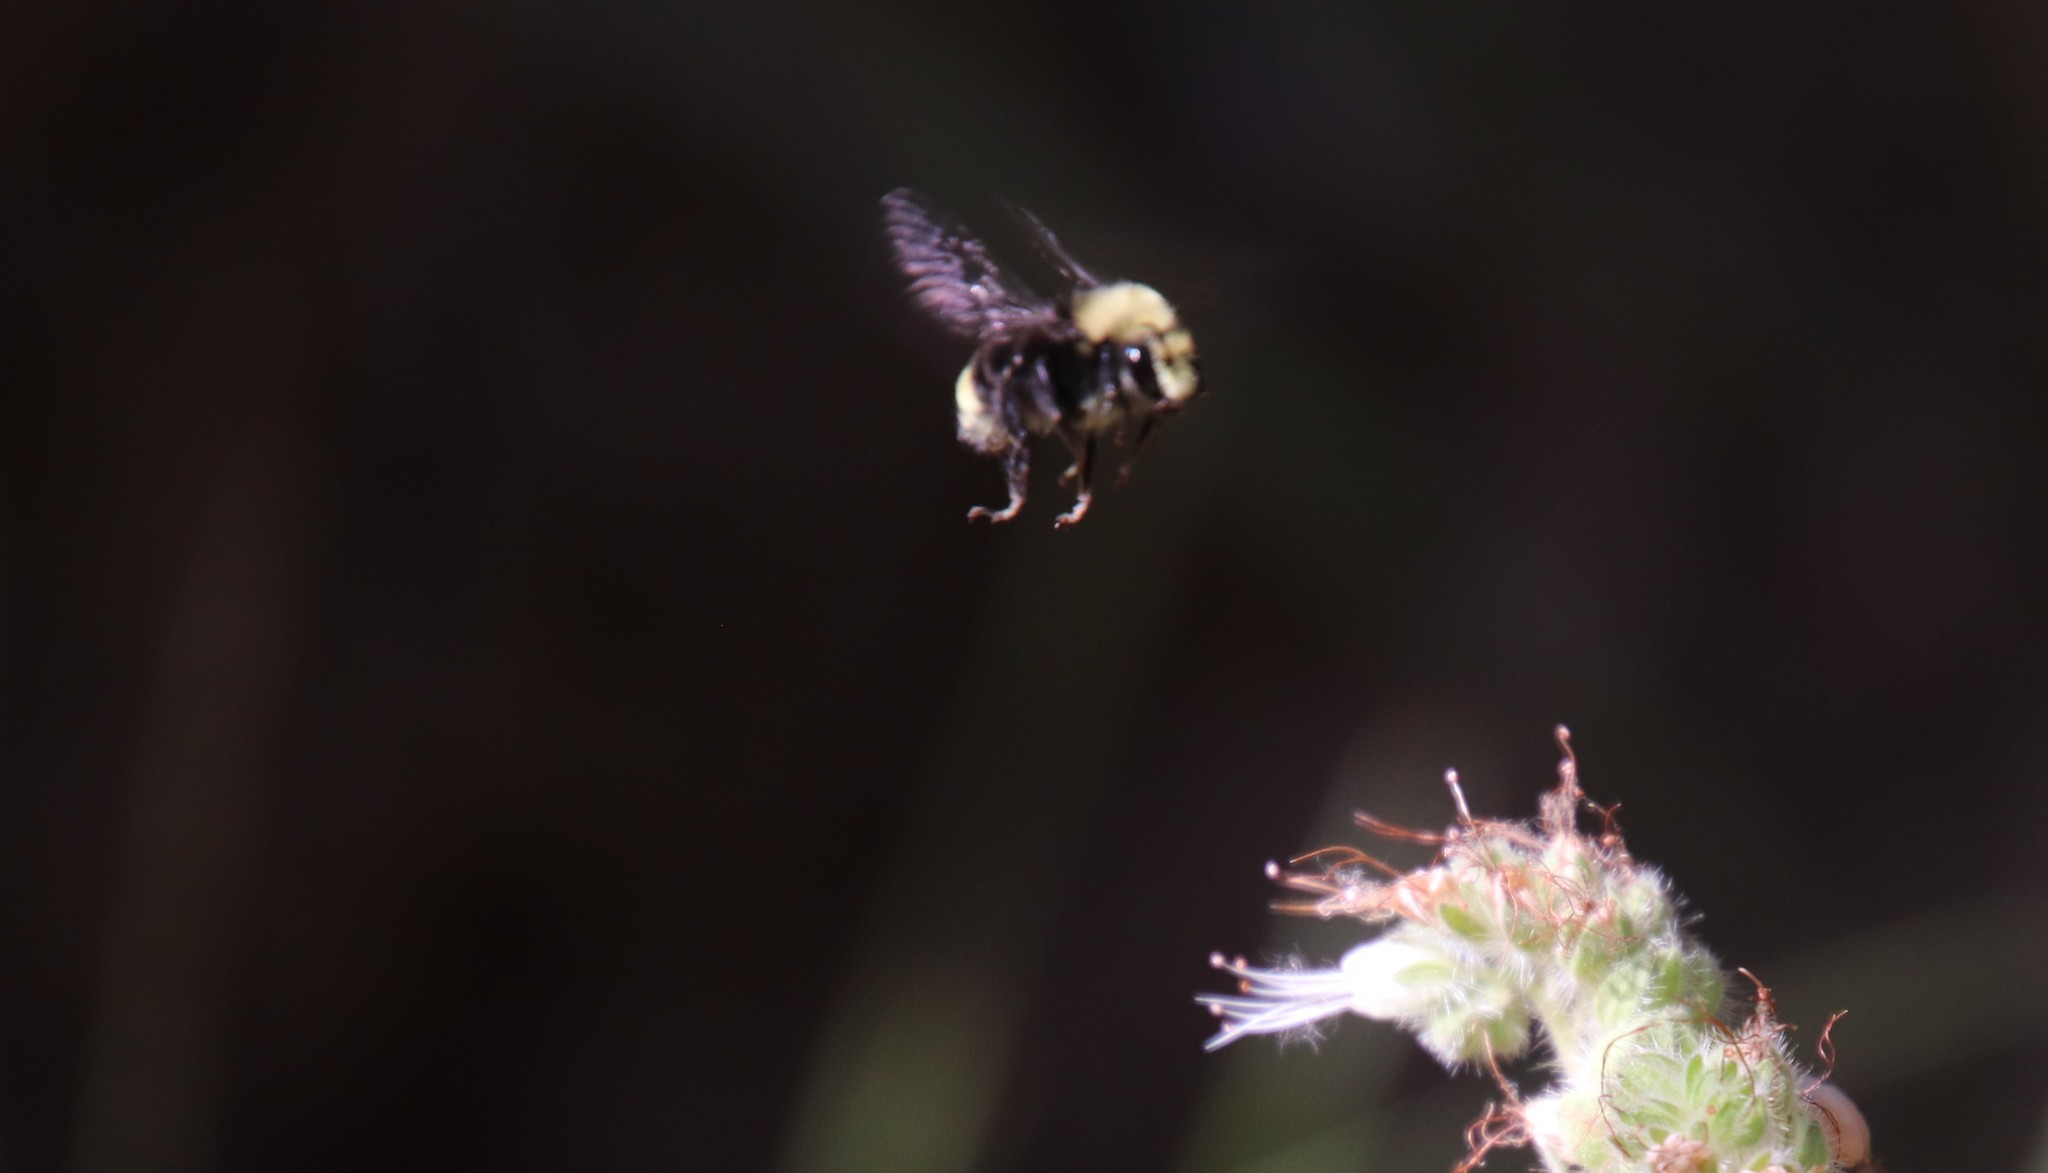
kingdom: Animalia
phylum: Arthropoda
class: Insecta
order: Hymenoptera
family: Apidae
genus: Bombus
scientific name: Bombus vosnesenskii
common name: Vosnesensky bumble bee
